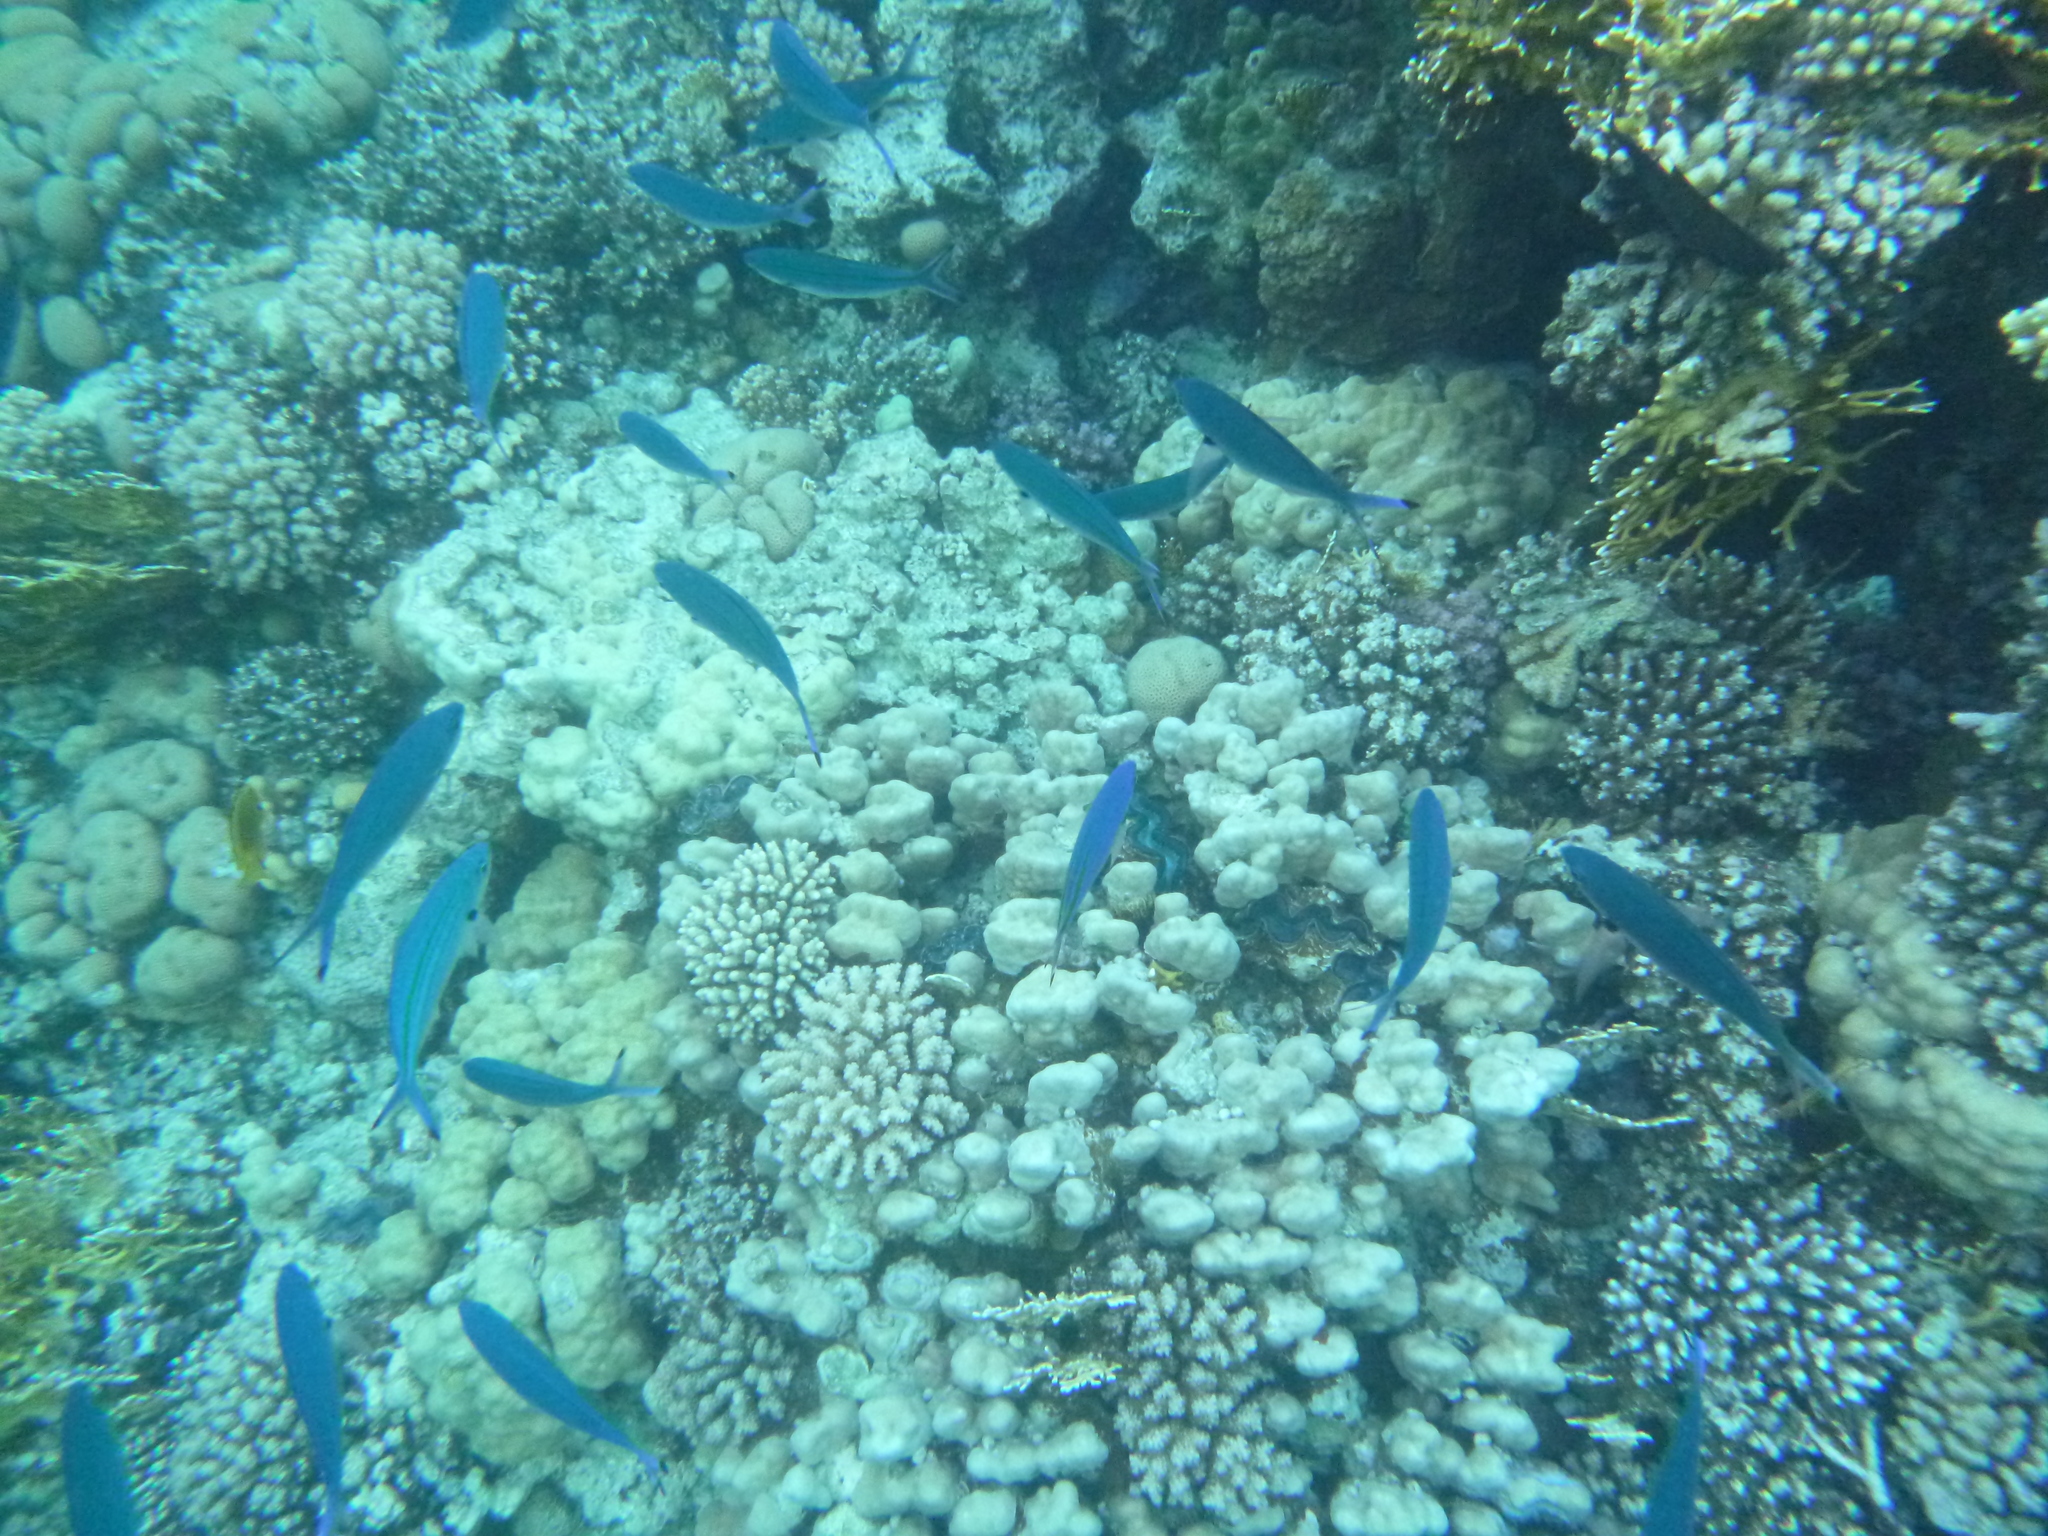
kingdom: Animalia
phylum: Chordata
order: Perciformes
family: Caesionidae
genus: Caesio
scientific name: Caesio lunaris
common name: Blue fusilier
